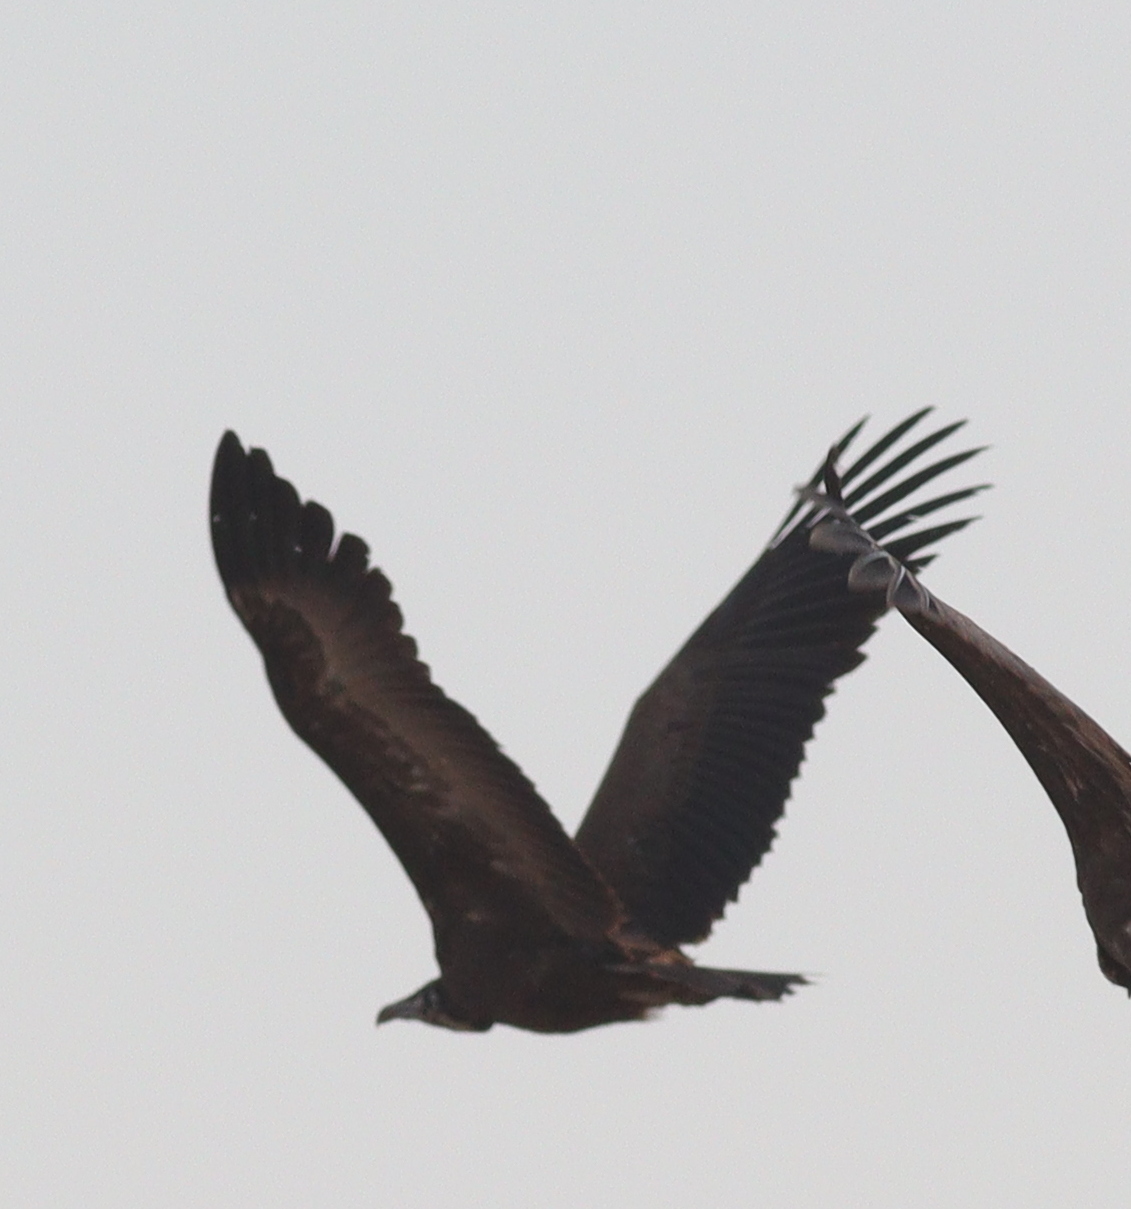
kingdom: Animalia
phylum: Chordata
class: Aves
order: Accipitriformes
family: Accipitridae
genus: Necrosyrtes
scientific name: Necrosyrtes monachus
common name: Hooded vulture
